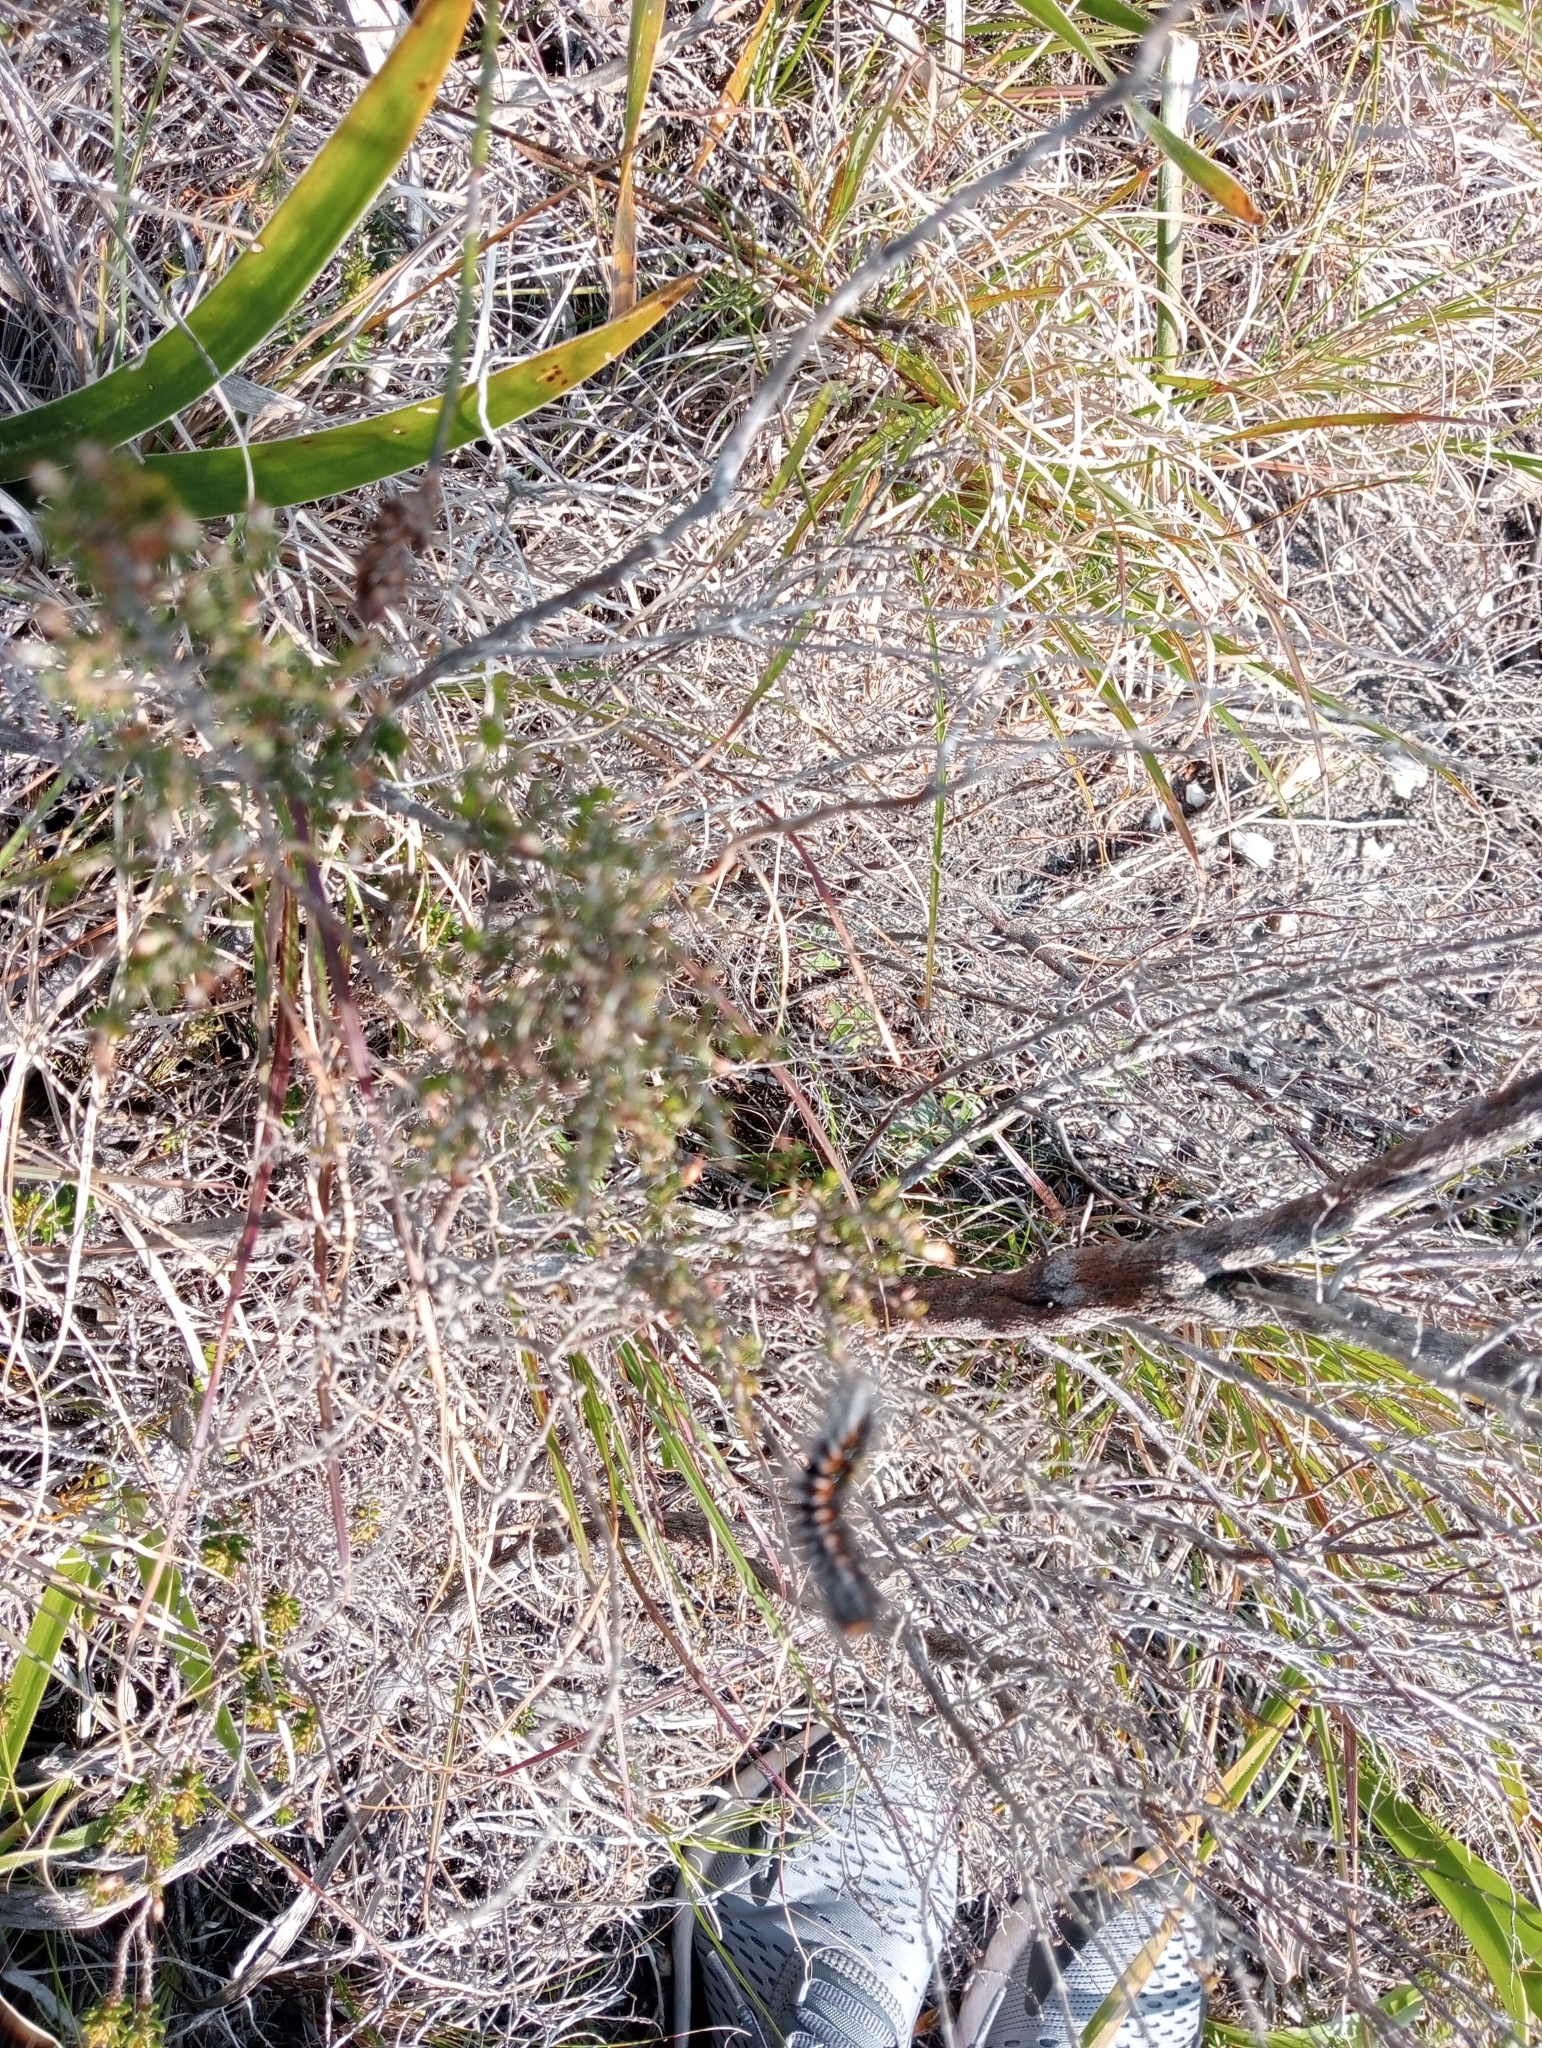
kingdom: Animalia
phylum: Arthropoda
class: Insecta
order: Lepidoptera
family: Lasiocampidae
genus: Mesocelis
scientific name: Mesocelis monticola
